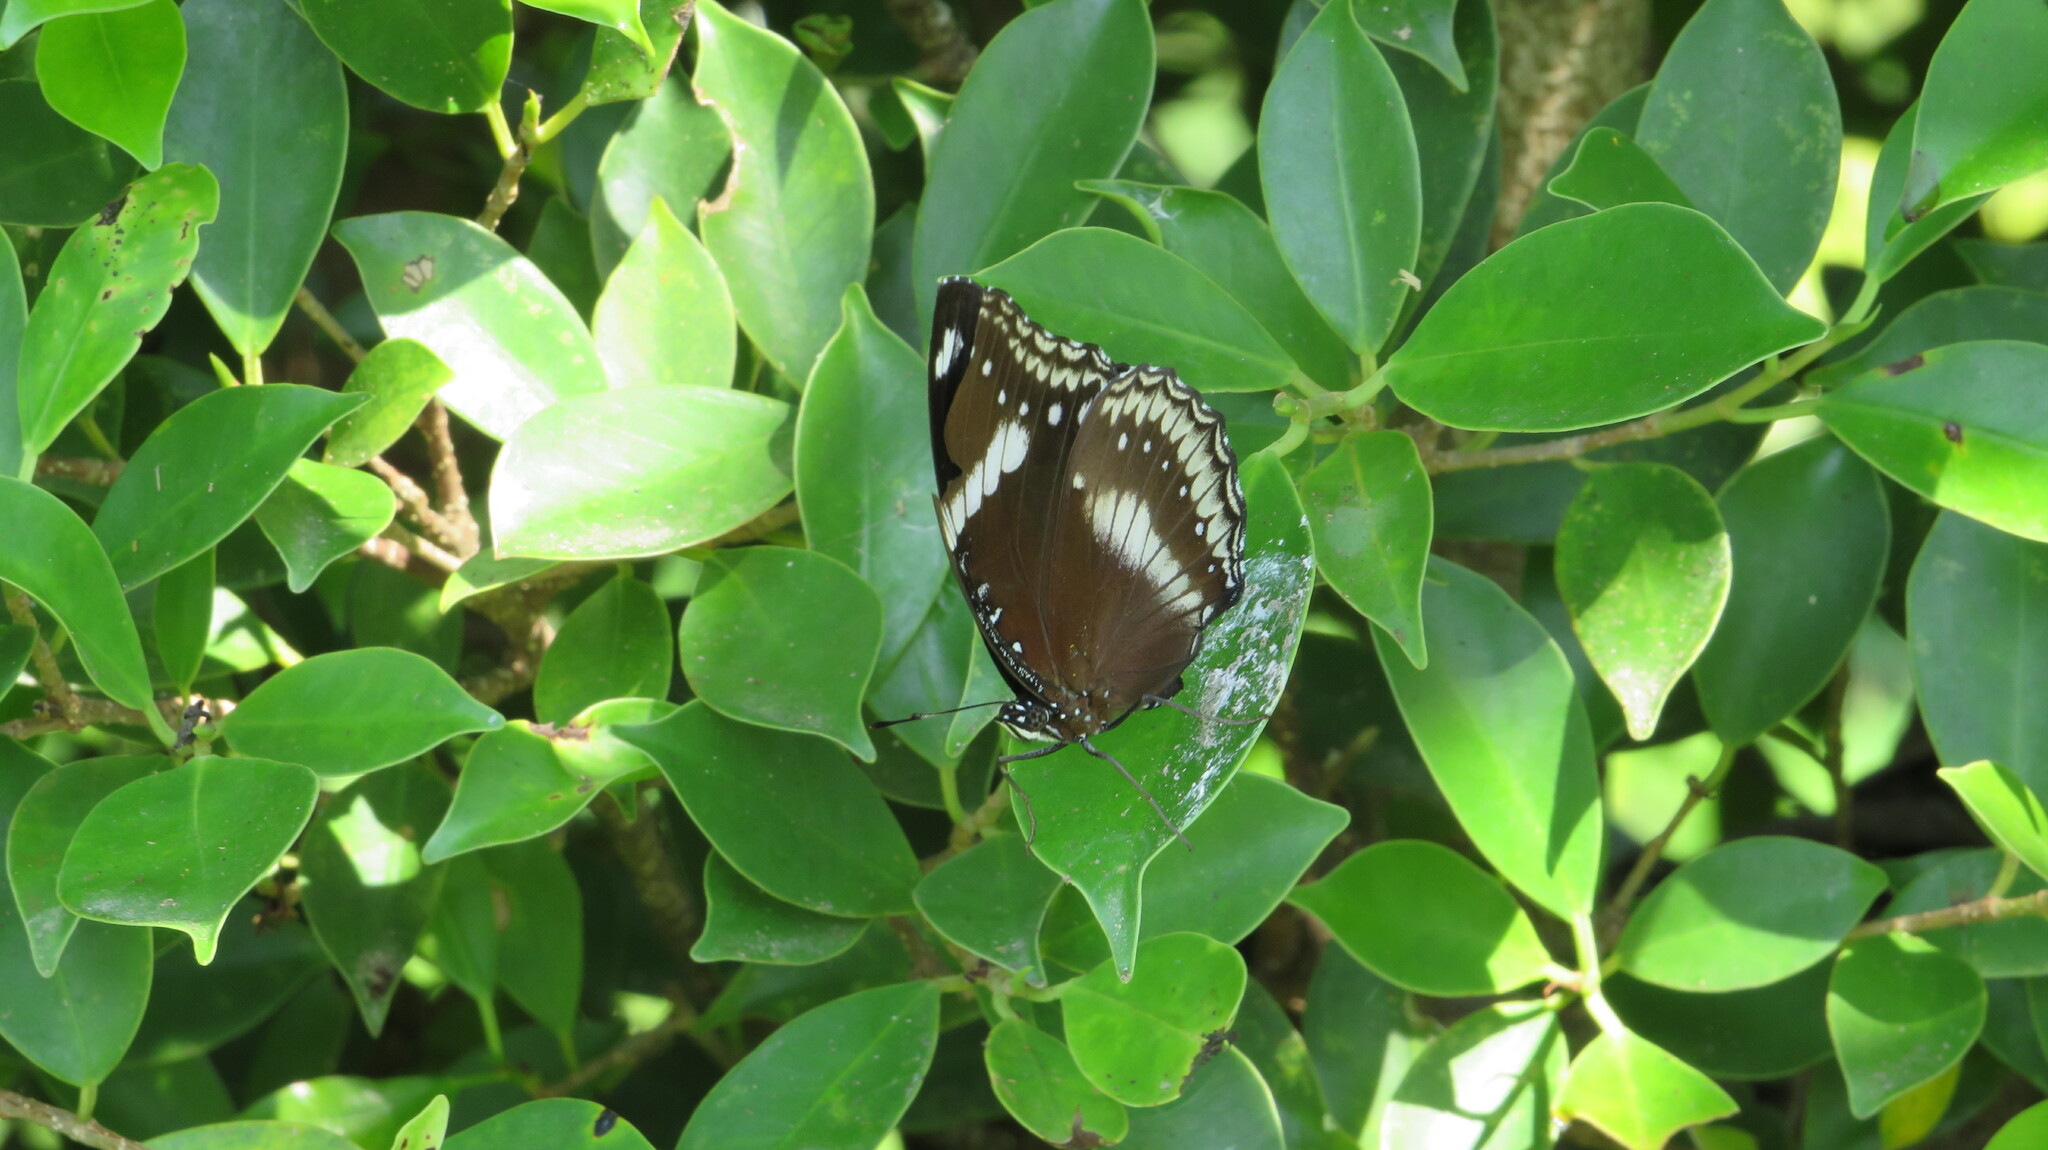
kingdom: Animalia
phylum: Arthropoda
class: Insecta
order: Lepidoptera
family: Nymphalidae
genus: Hypolimnas
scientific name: Hypolimnas bolina
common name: Great eggfly
